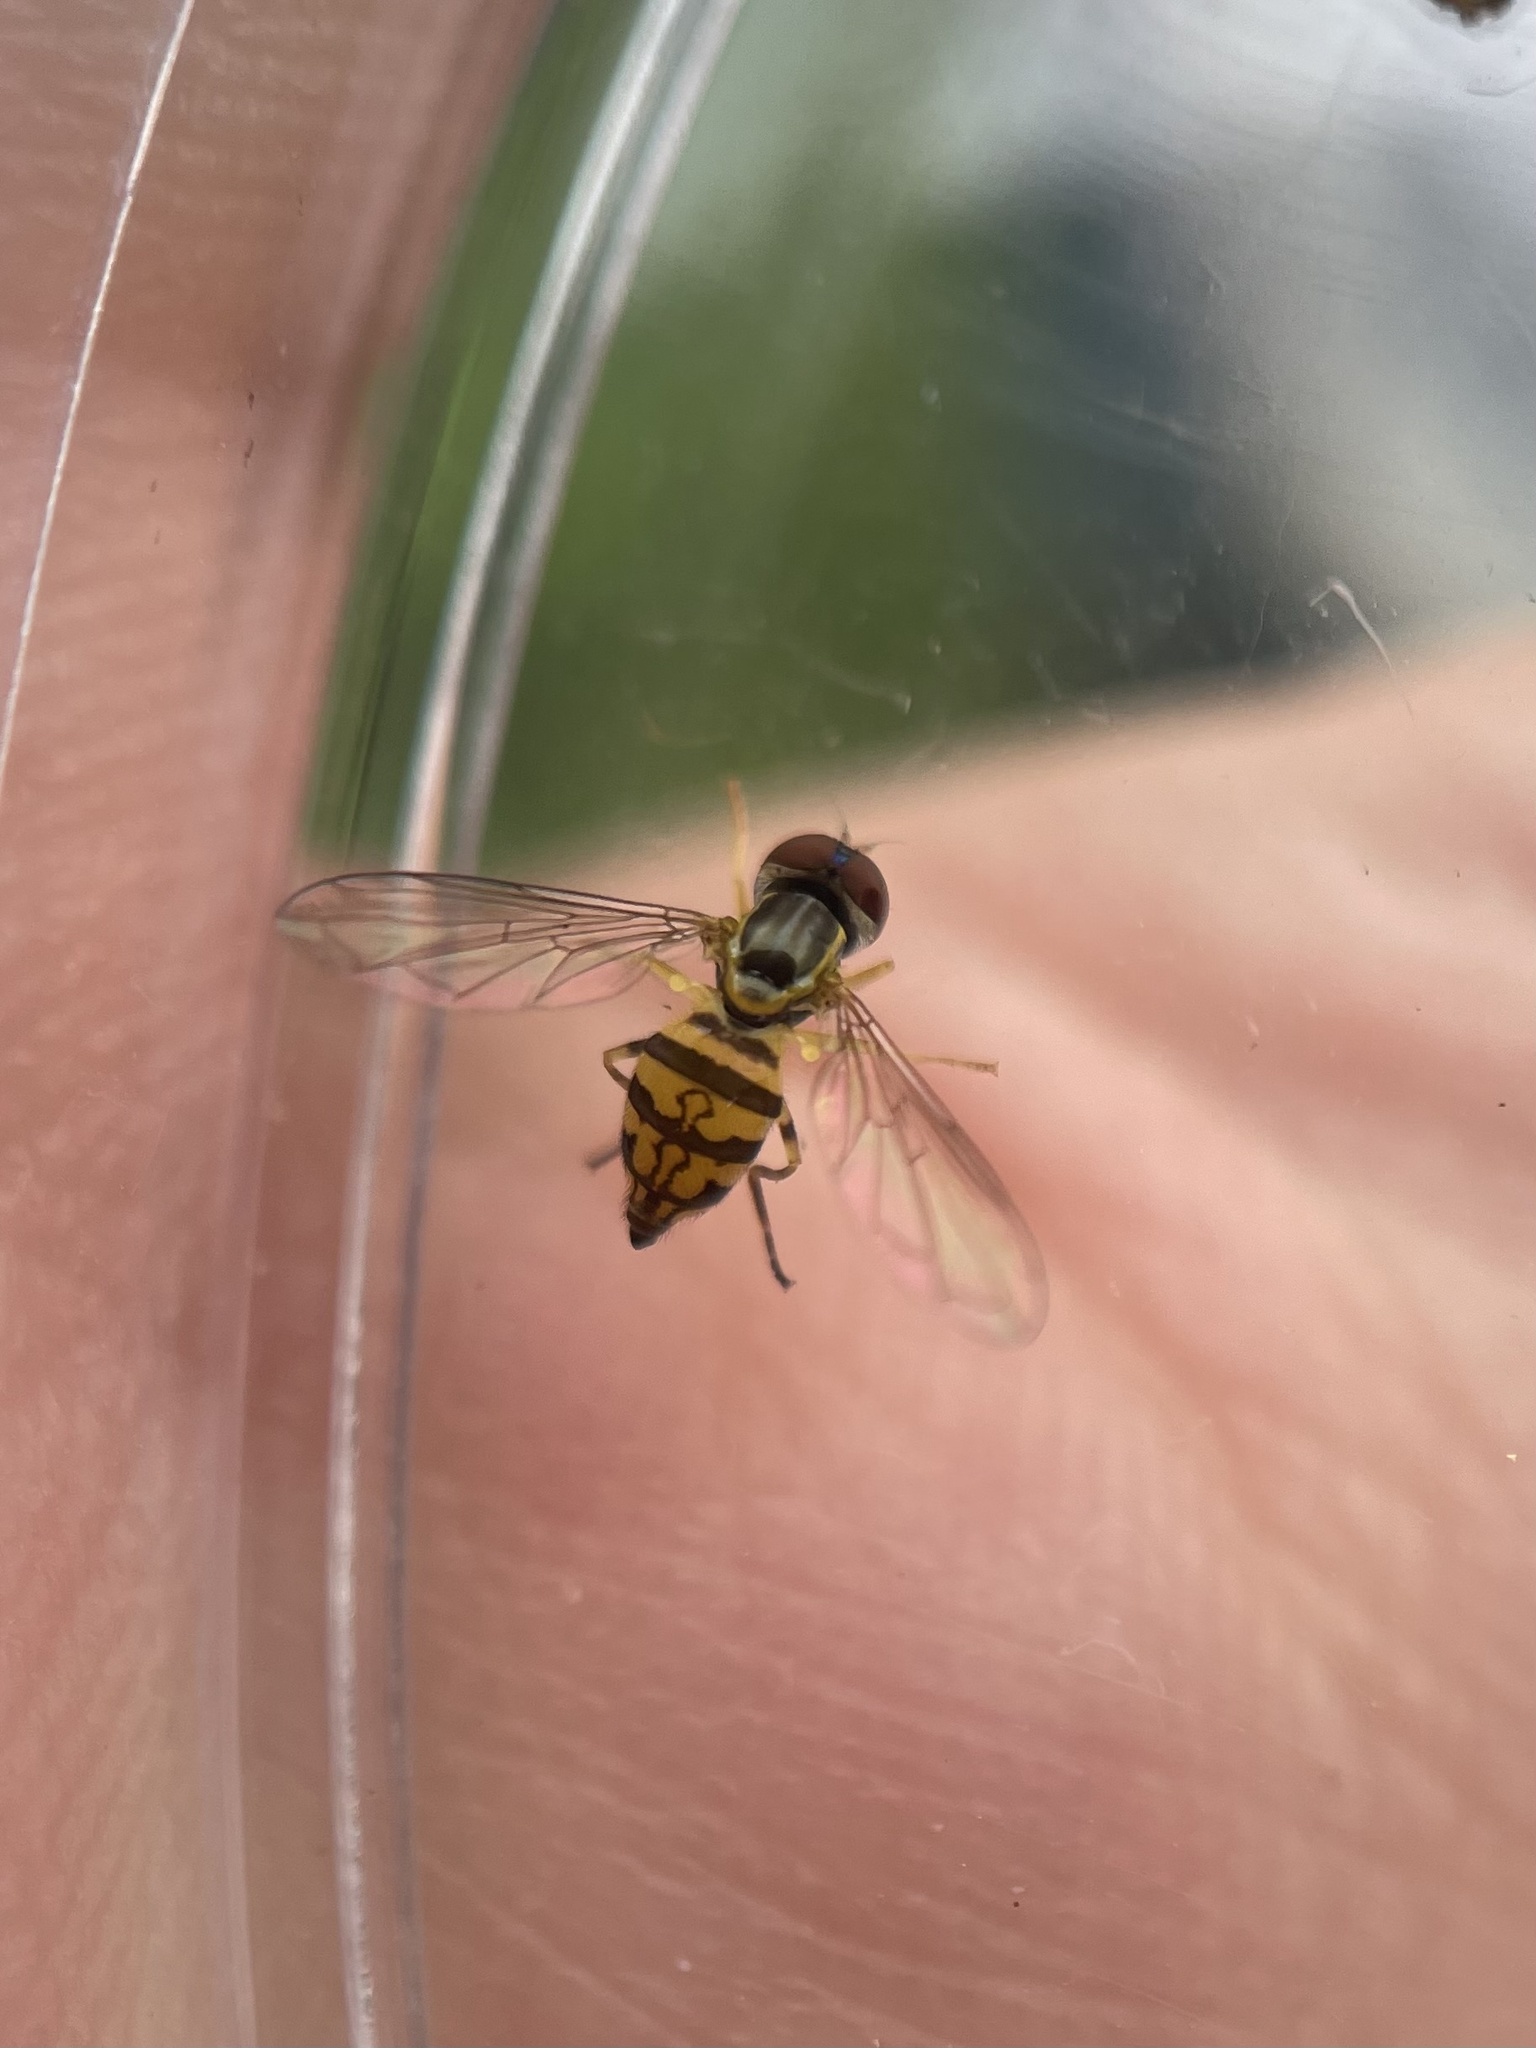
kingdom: Animalia
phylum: Arthropoda
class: Insecta
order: Diptera
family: Syrphidae
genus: Toxomerus
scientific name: Toxomerus geminatus
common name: Eastern calligrapher
